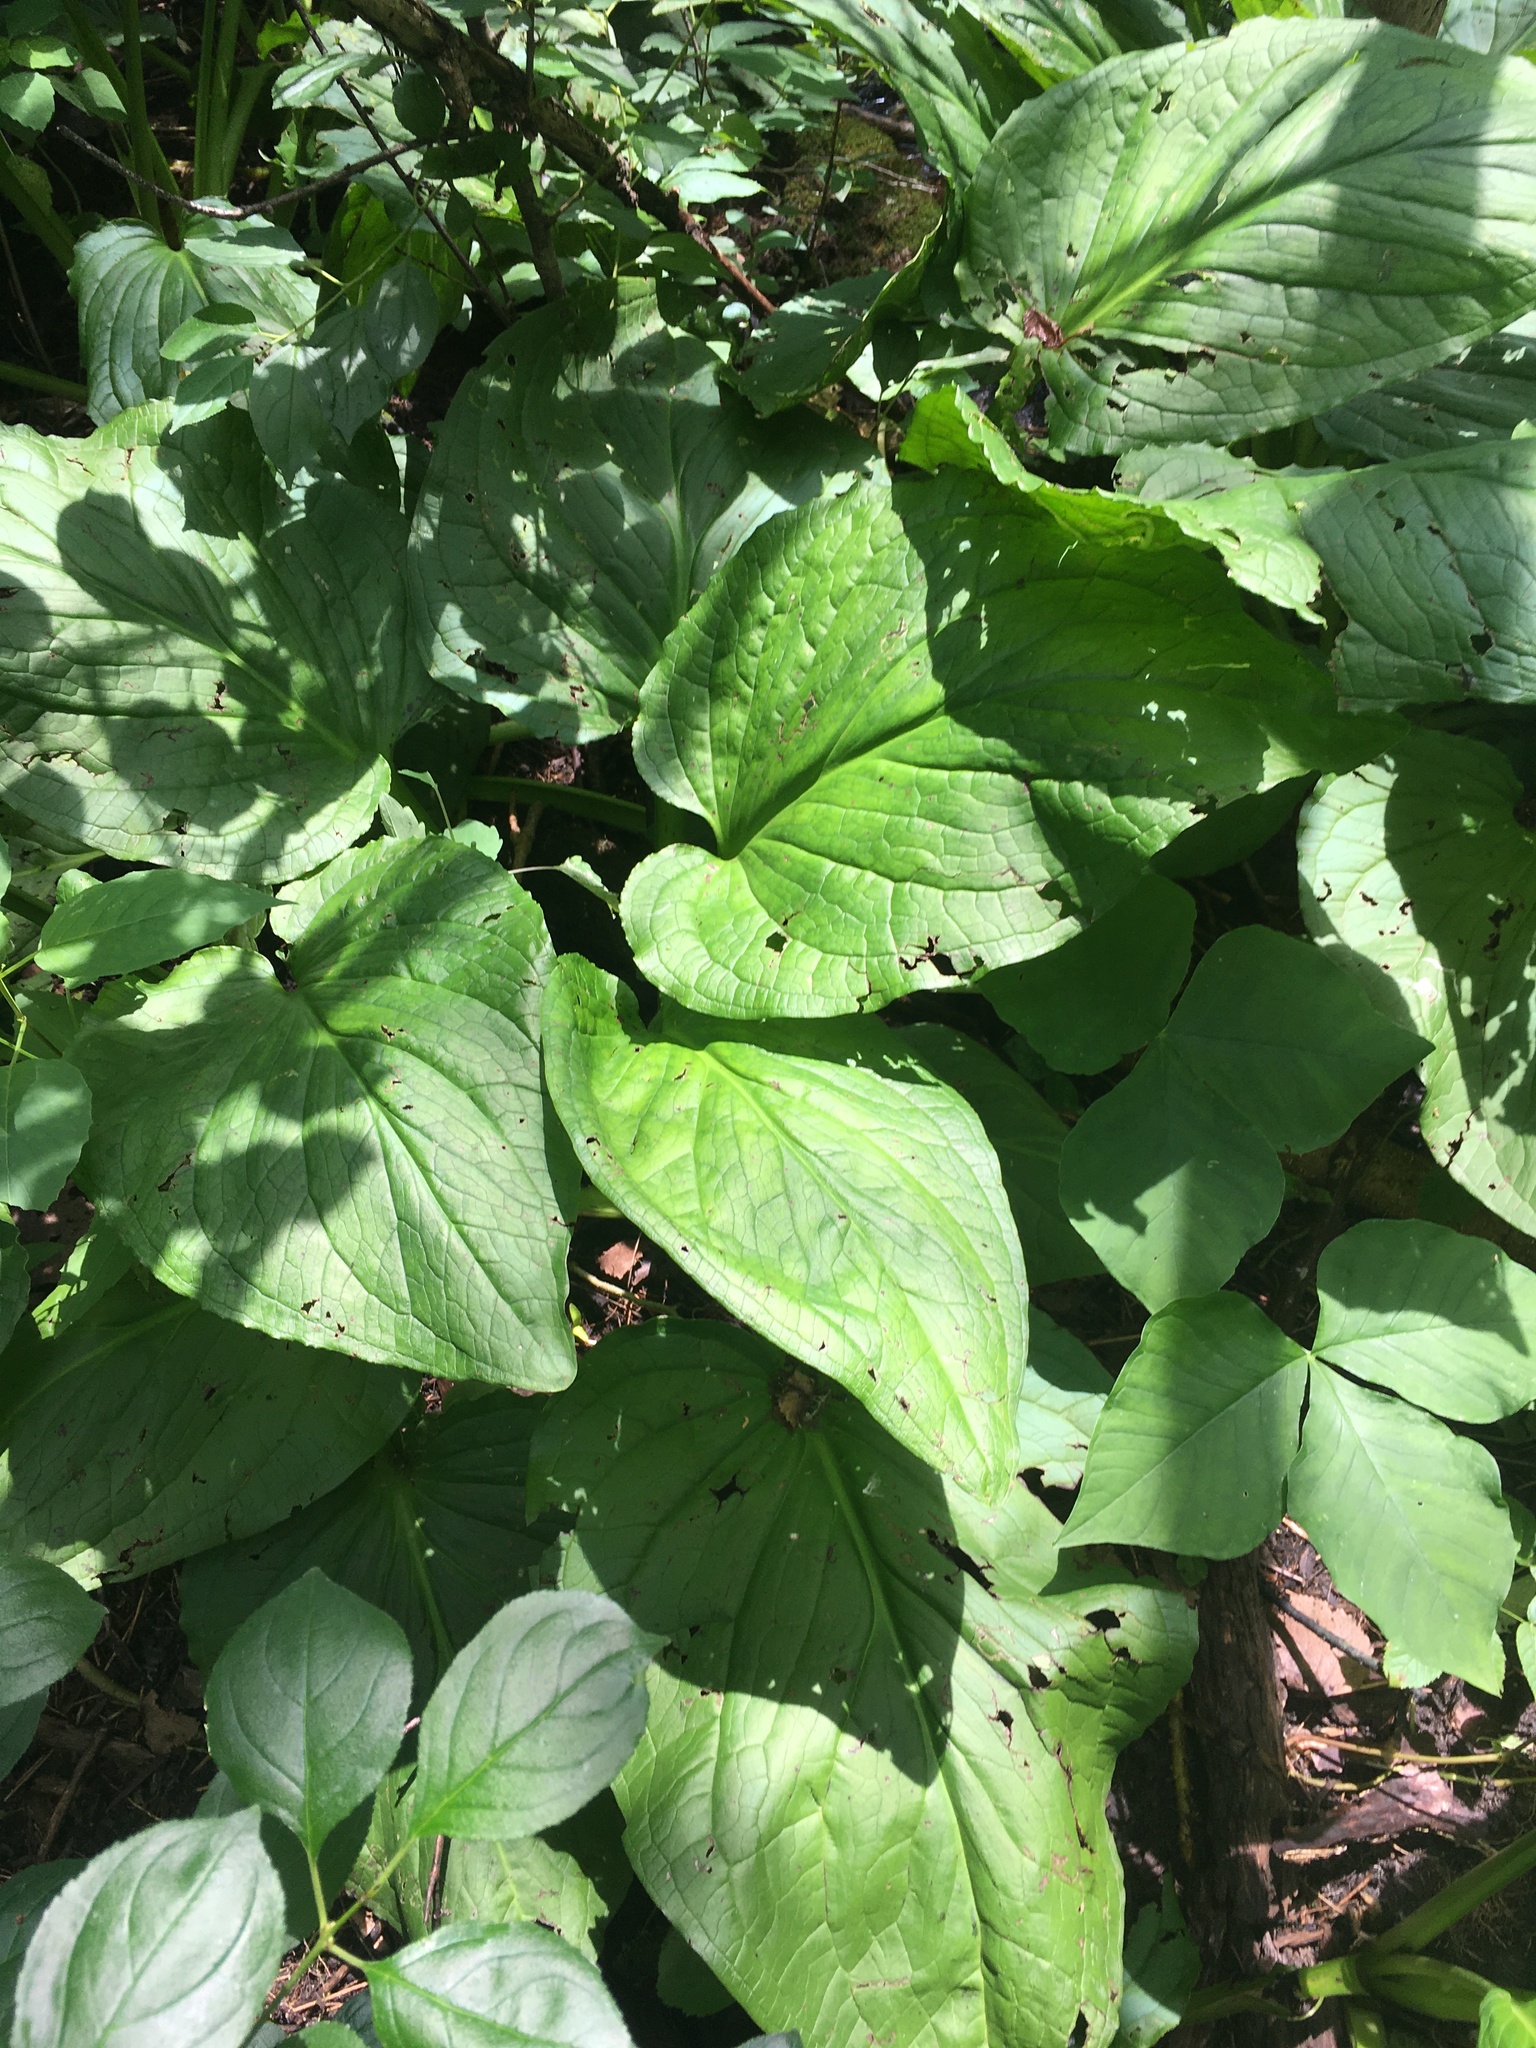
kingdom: Plantae
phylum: Tracheophyta
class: Liliopsida
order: Alismatales
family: Araceae
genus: Symplocarpus
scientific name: Symplocarpus foetidus
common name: Eastern skunk cabbage
